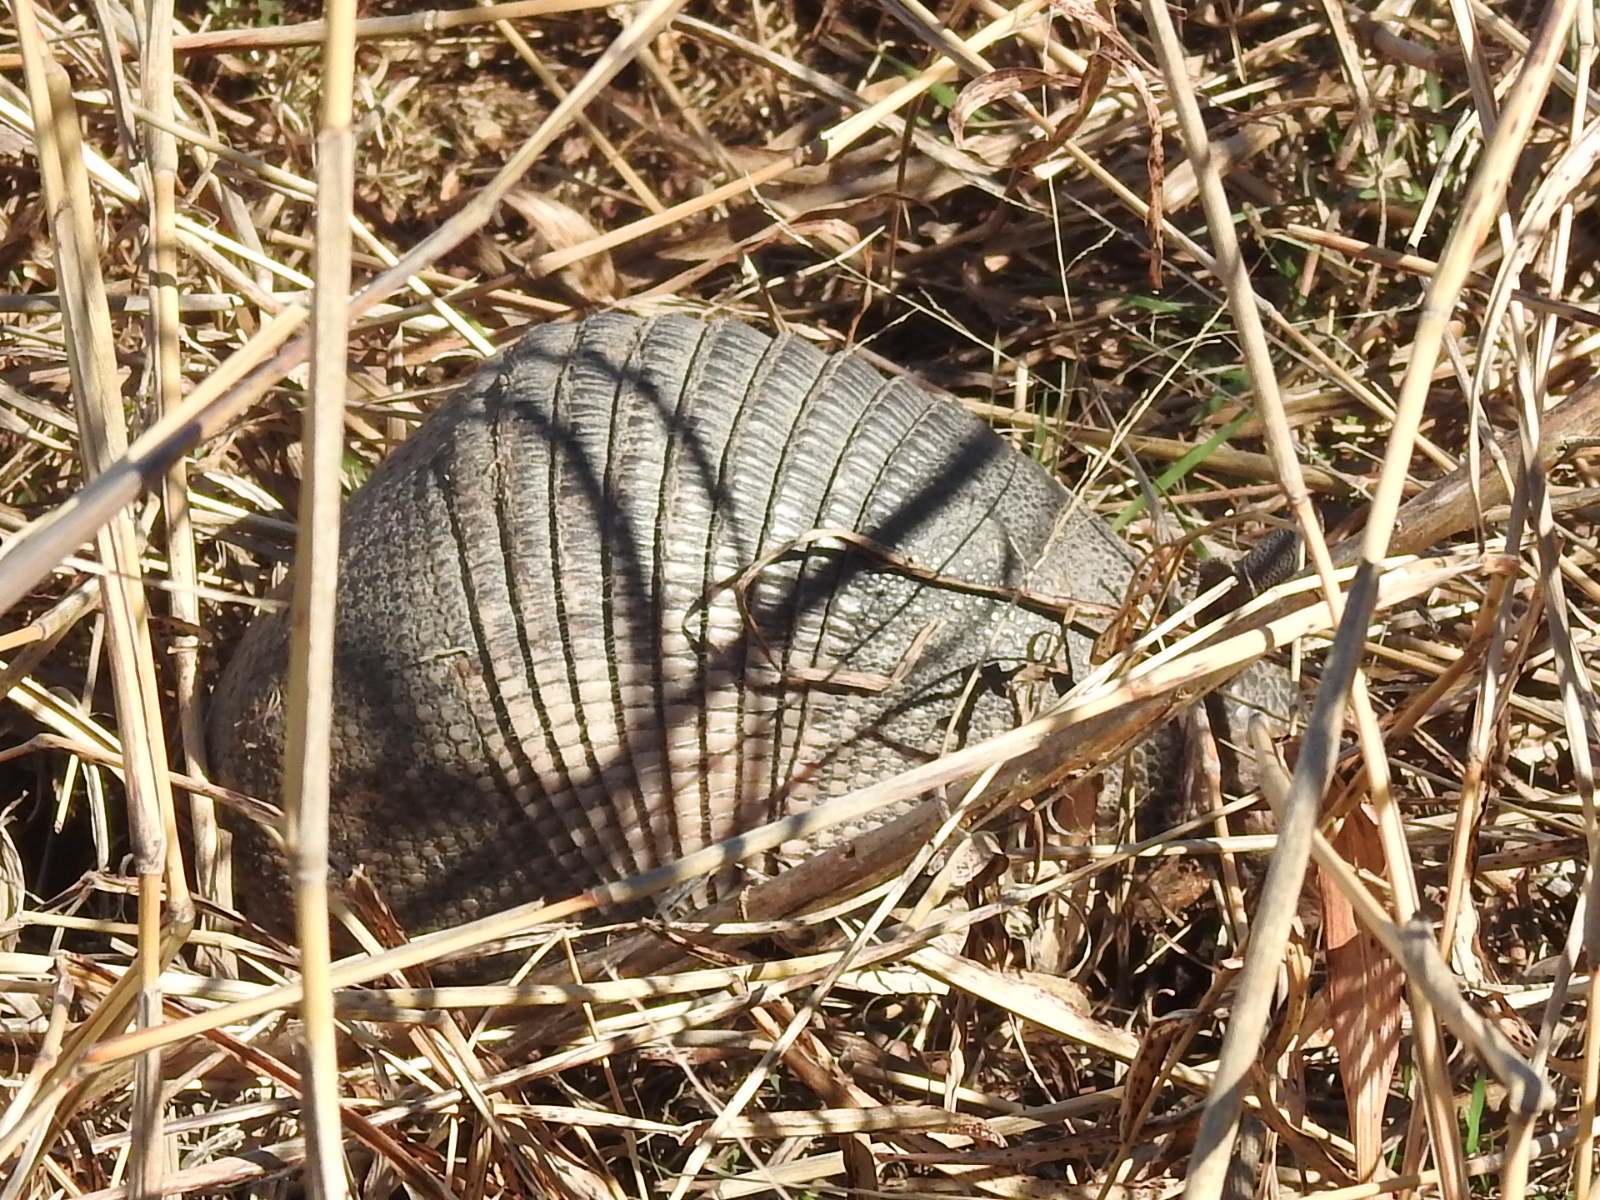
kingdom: Animalia
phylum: Chordata
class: Mammalia
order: Cingulata
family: Dasypodidae
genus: Dasypus
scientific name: Dasypus novemcinctus
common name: Nine-banded armadillo
